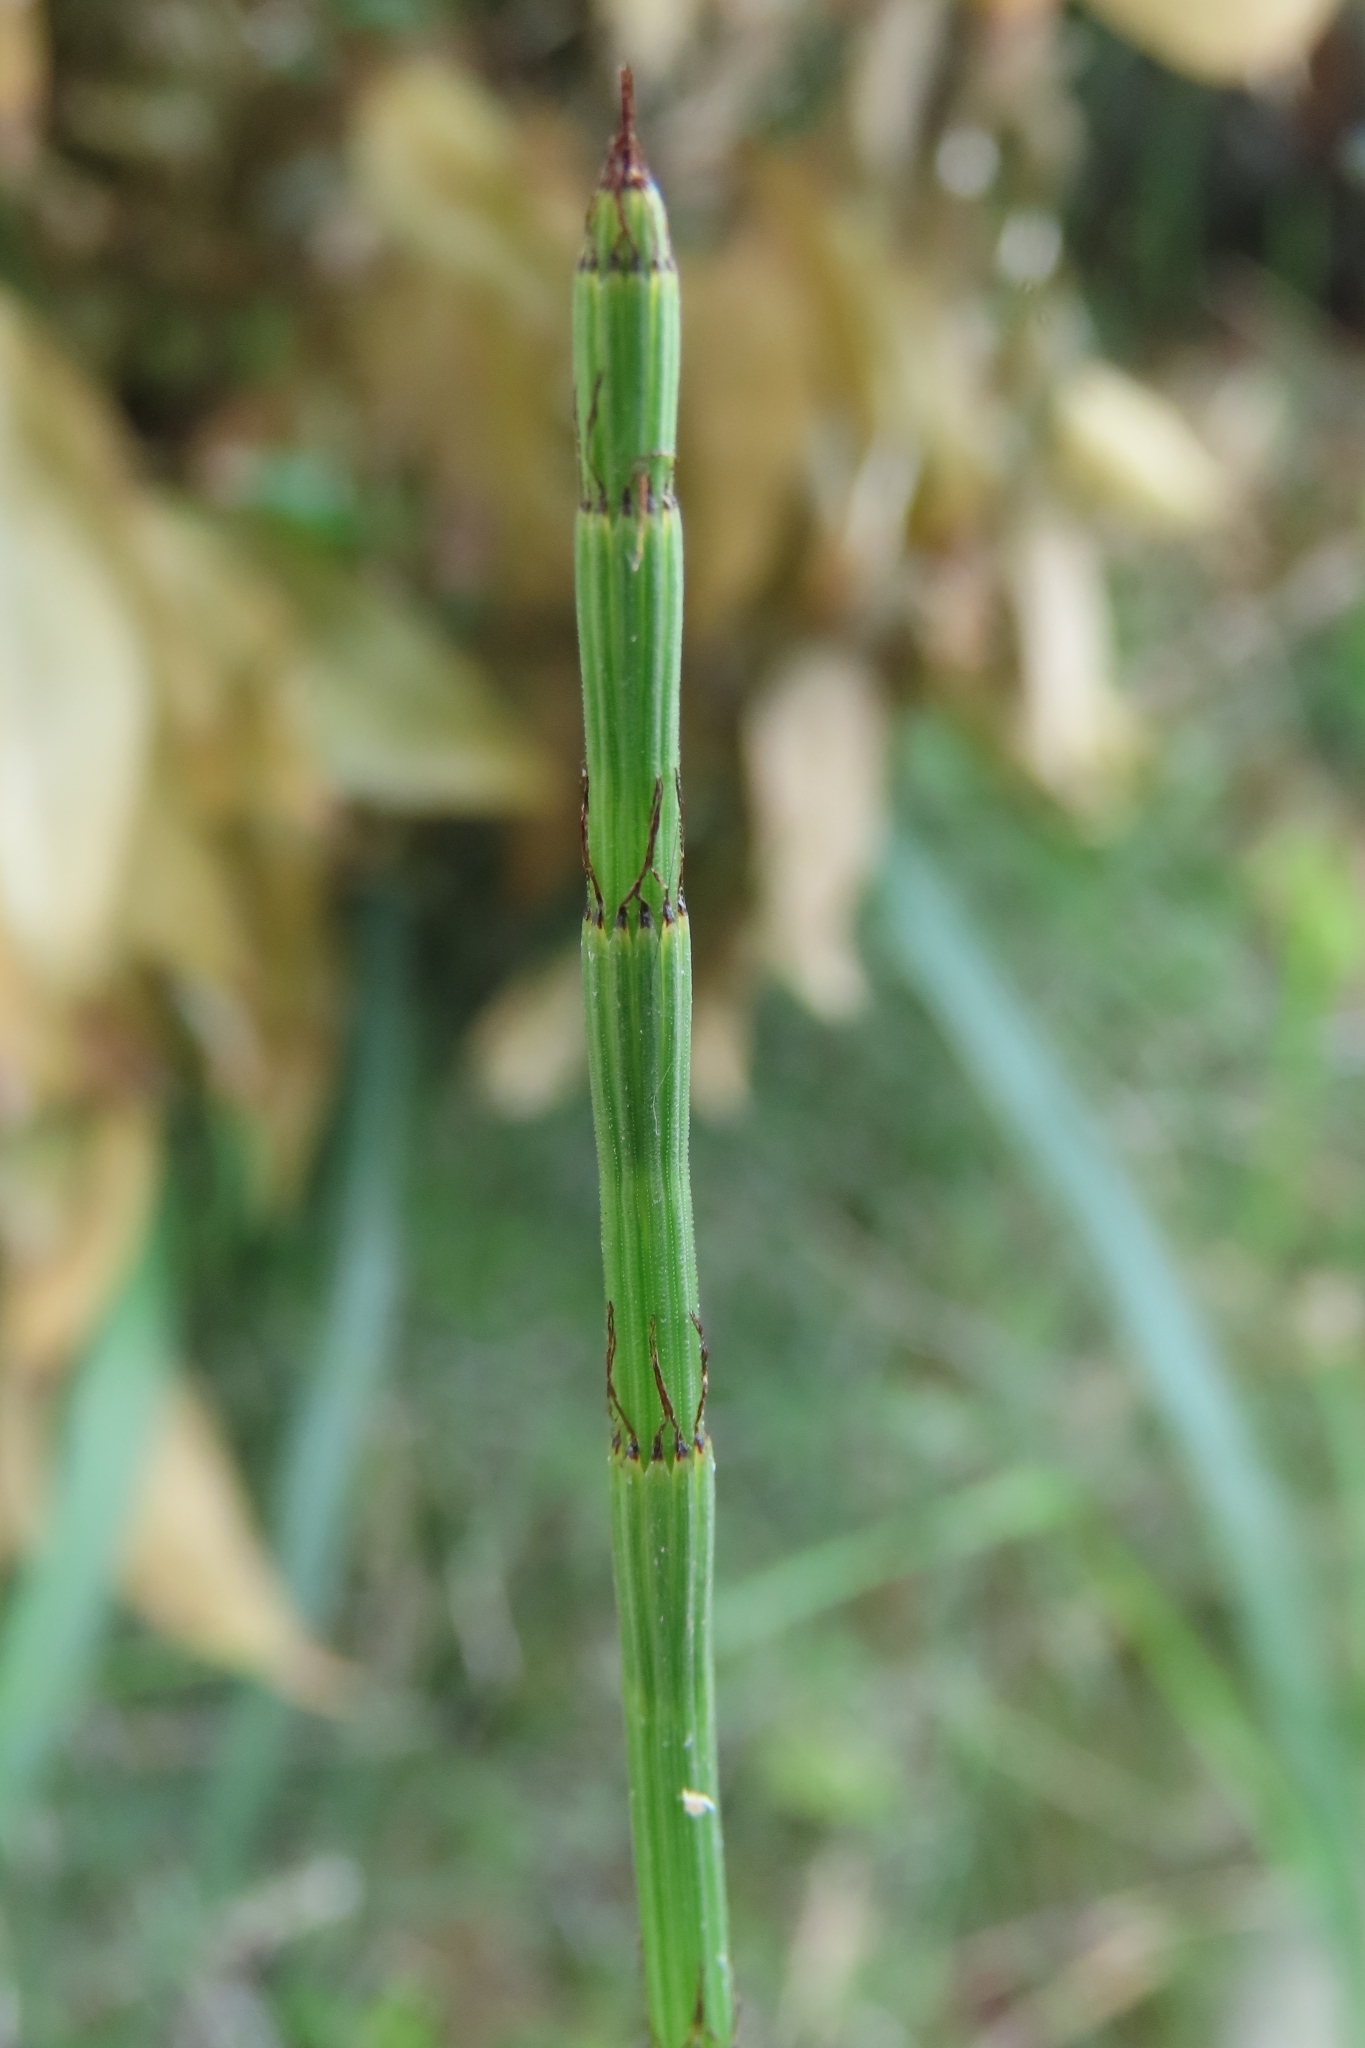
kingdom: Plantae
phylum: Tracheophyta
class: Polypodiopsida
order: Equisetales
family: Equisetaceae
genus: Equisetum
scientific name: Equisetum ramosissimum
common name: Branched horsetail
